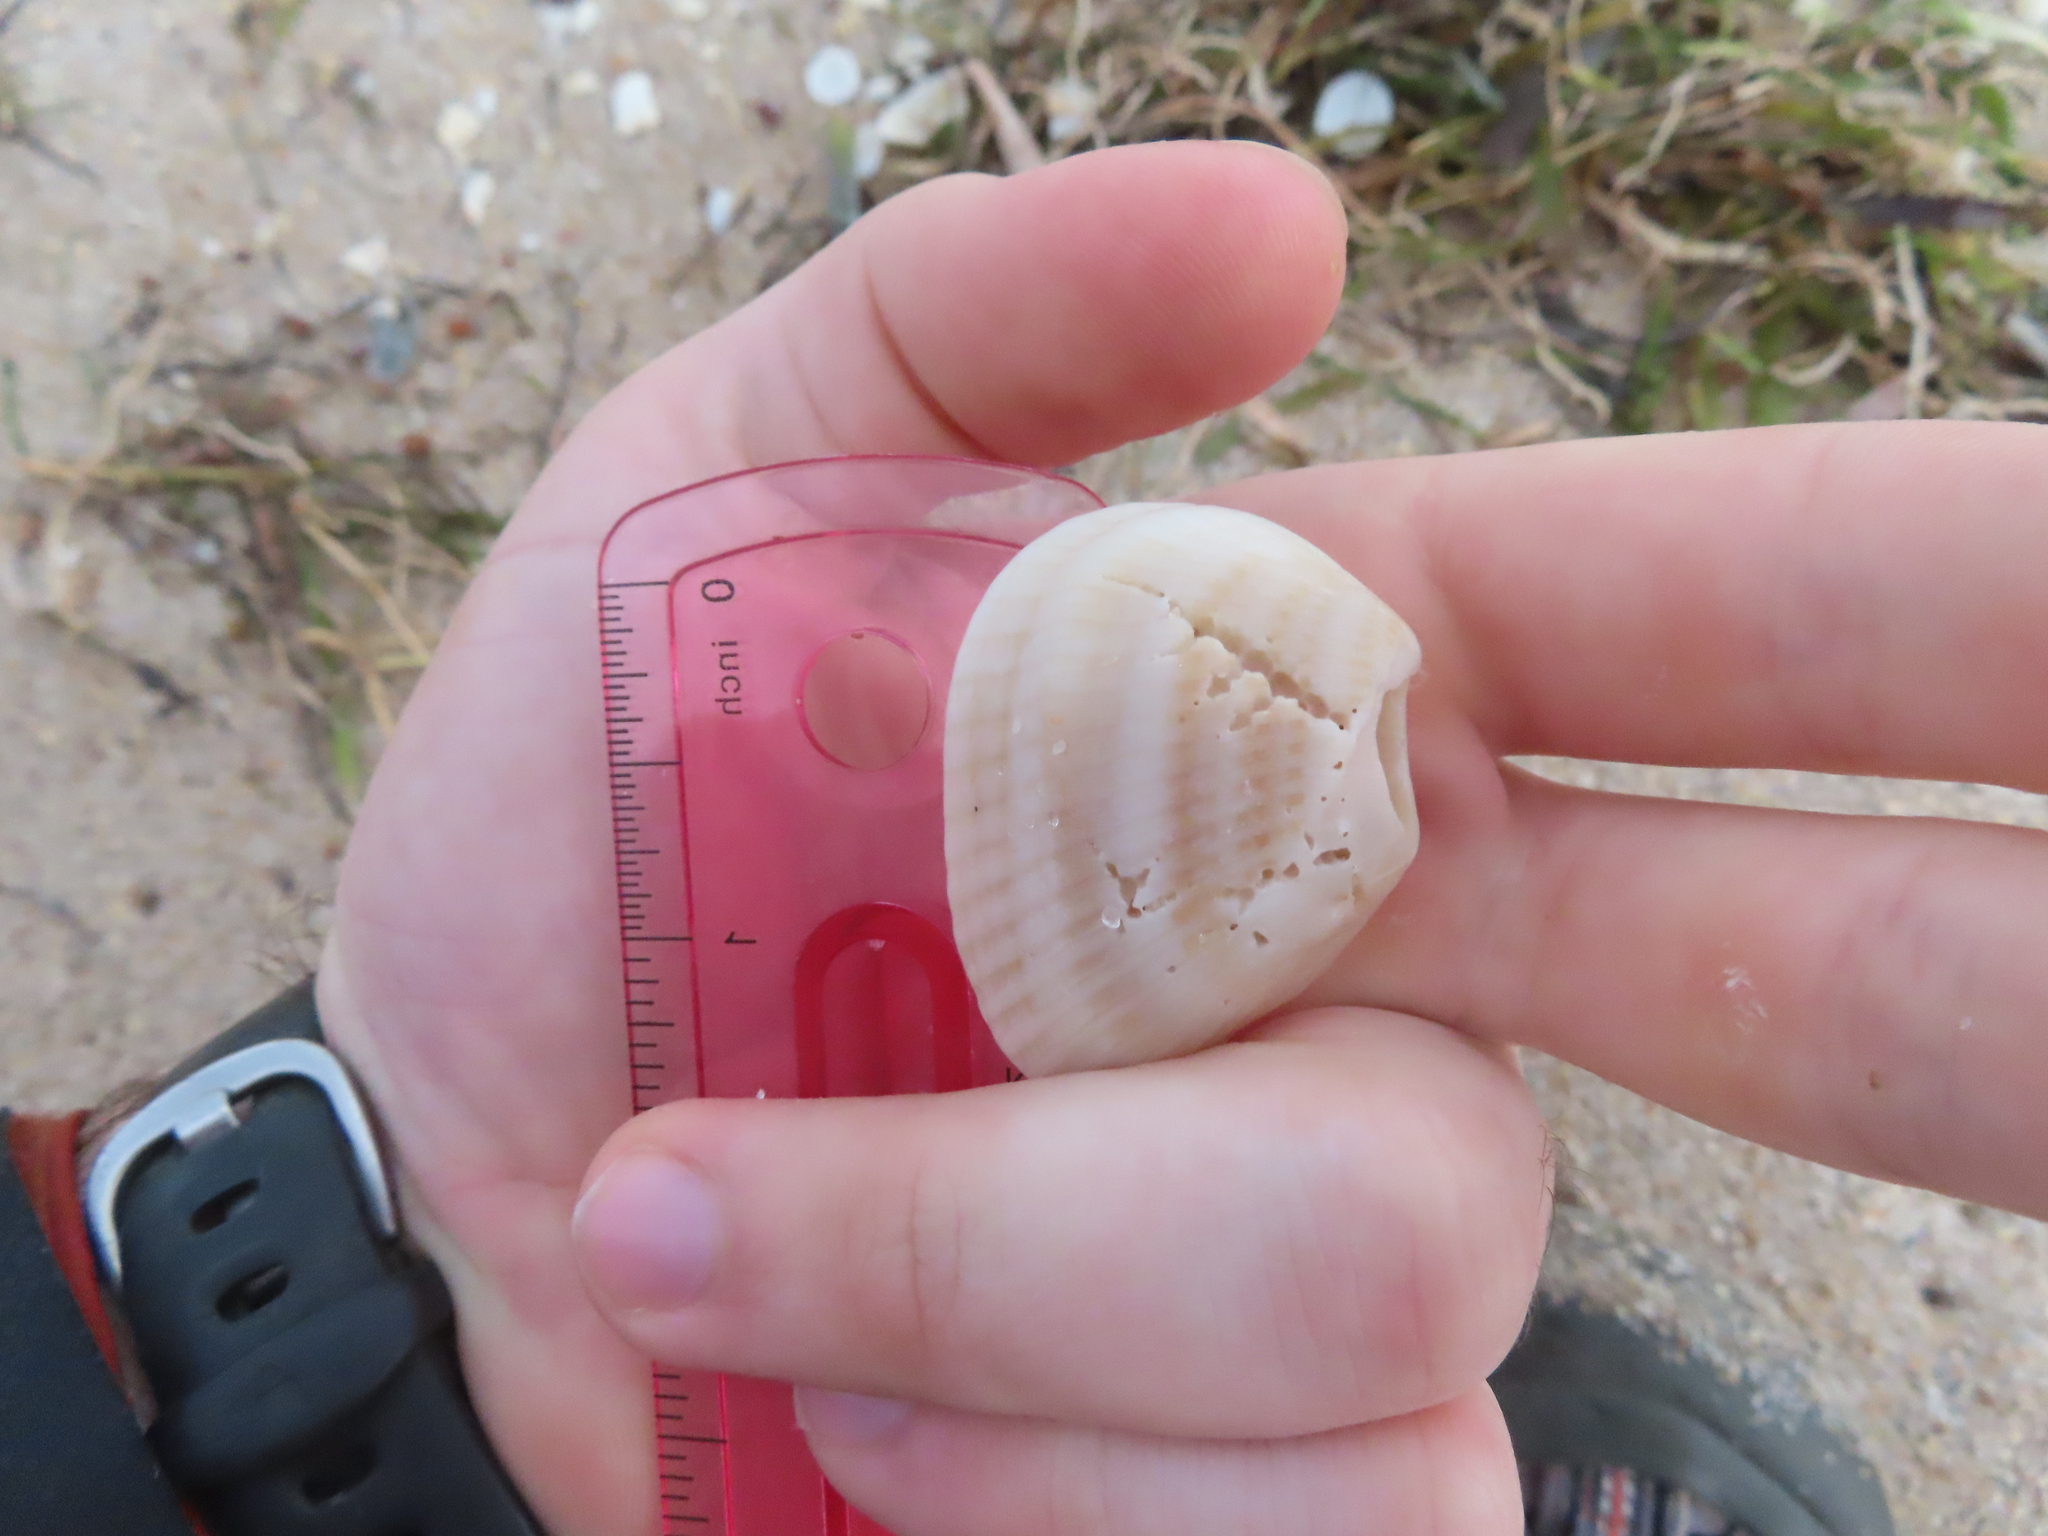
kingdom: Animalia
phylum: Mollusca
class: Bivalvia
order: Arcida
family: Noetiidae
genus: Noetia
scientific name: Noetia ponderosa
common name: Ponderous ark
